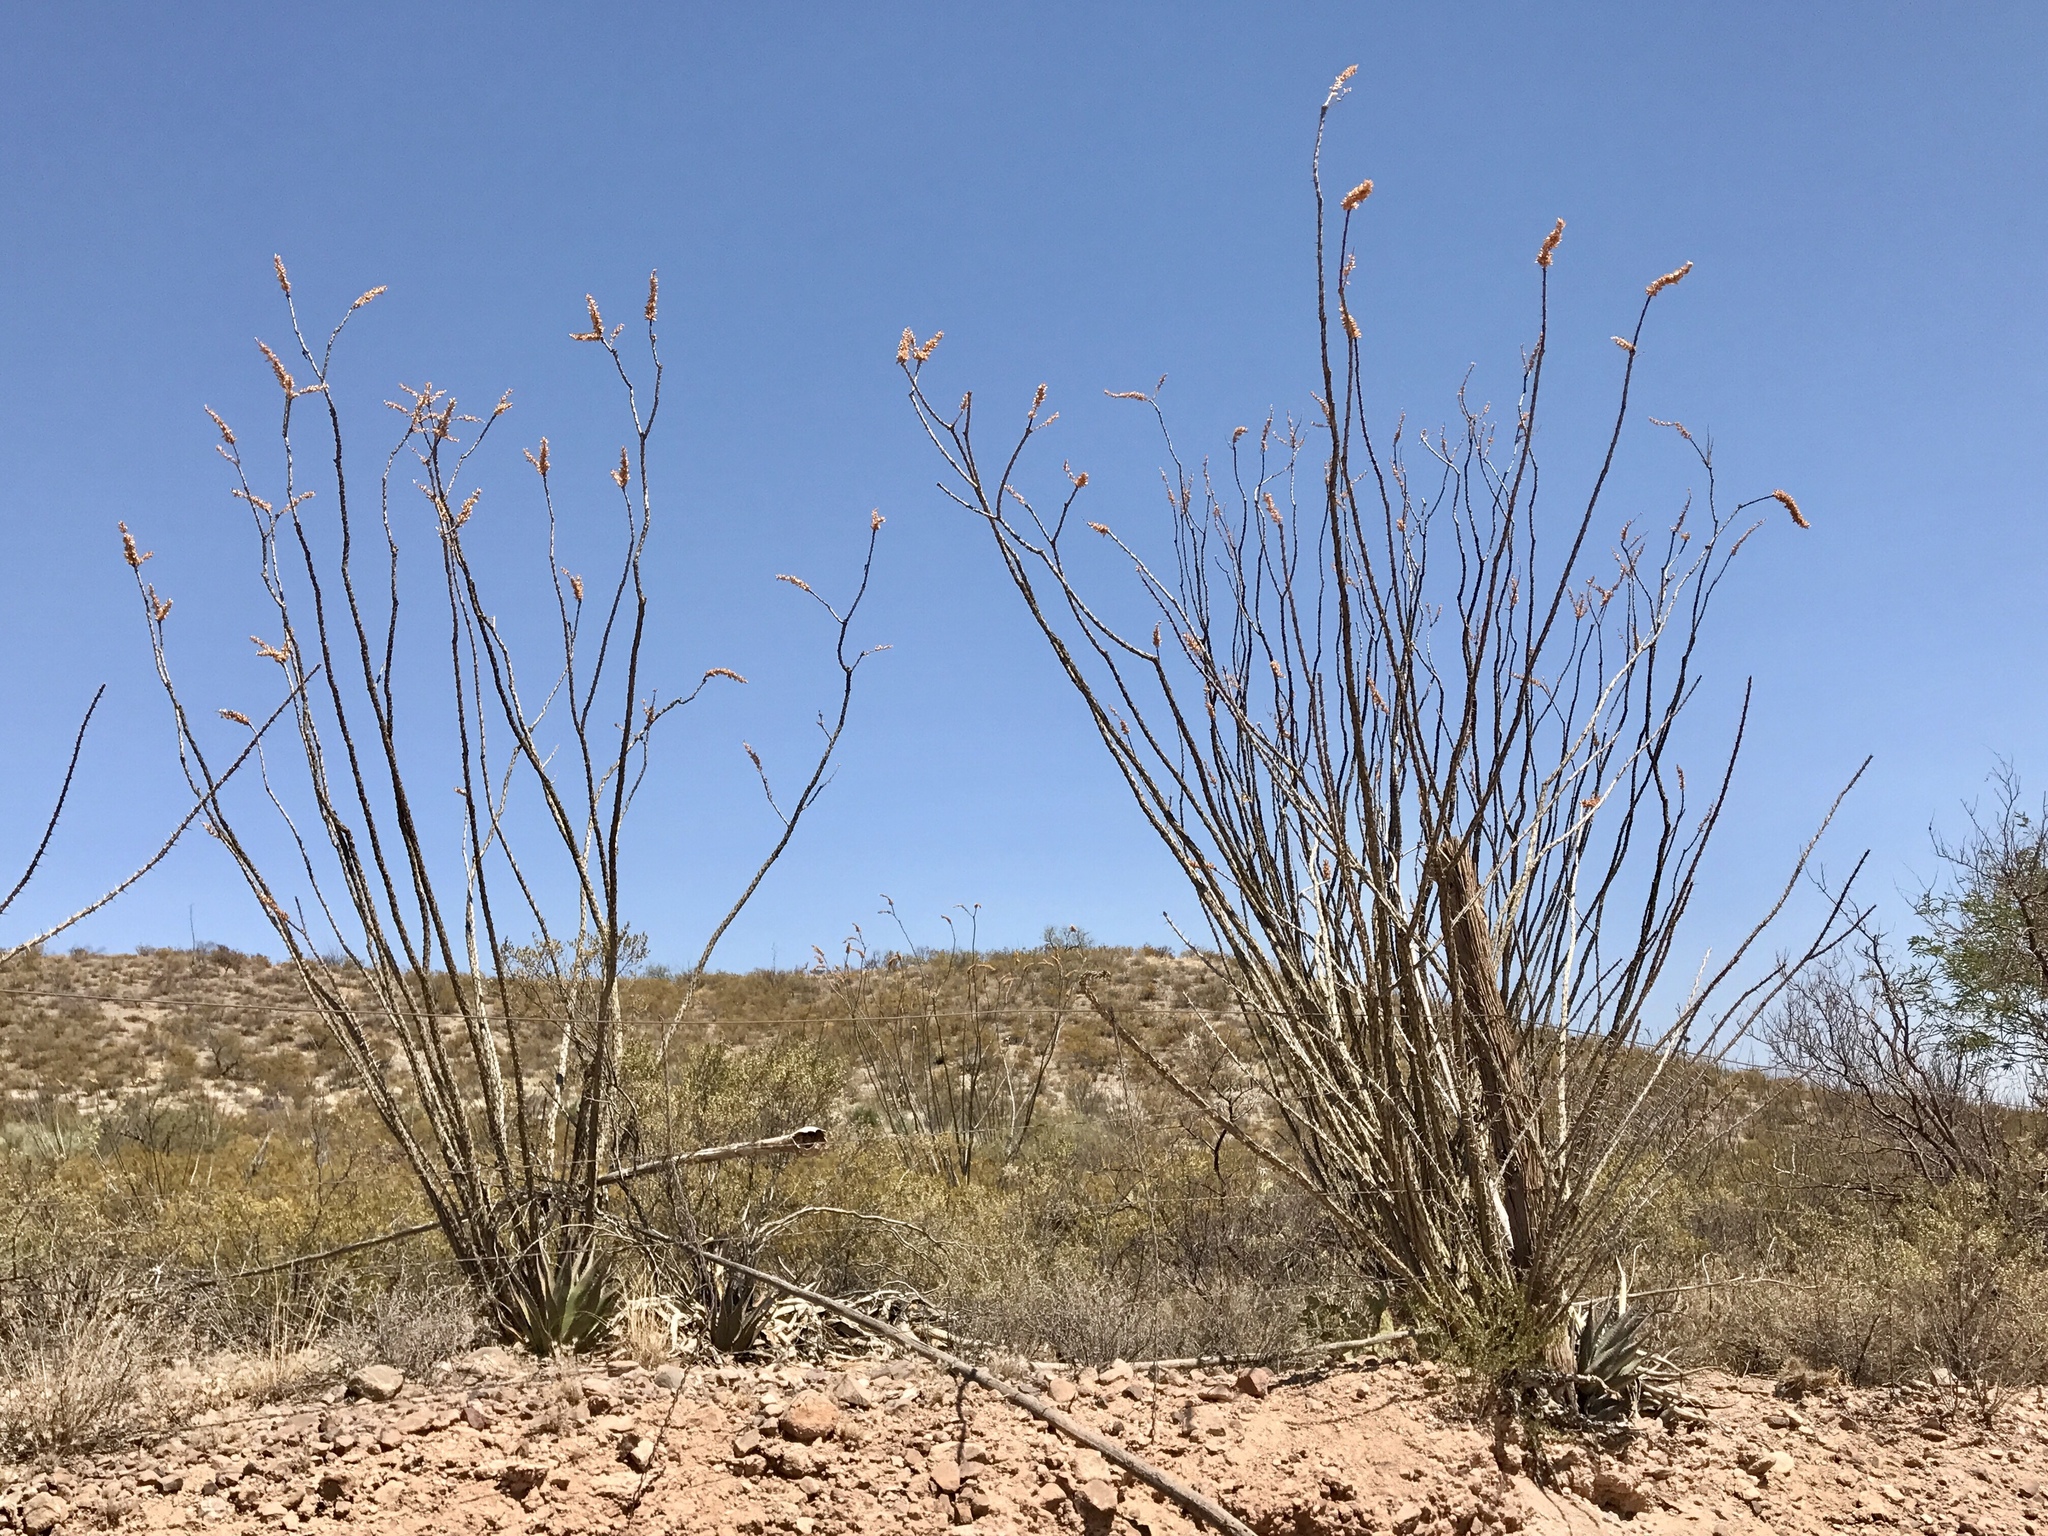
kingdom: Plantae
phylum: Tracheophyta
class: Magnoliopsida
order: Ericales
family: Fouquieriaceae
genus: Fouquieria
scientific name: Fouquieria splendens
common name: Vine-cactus
